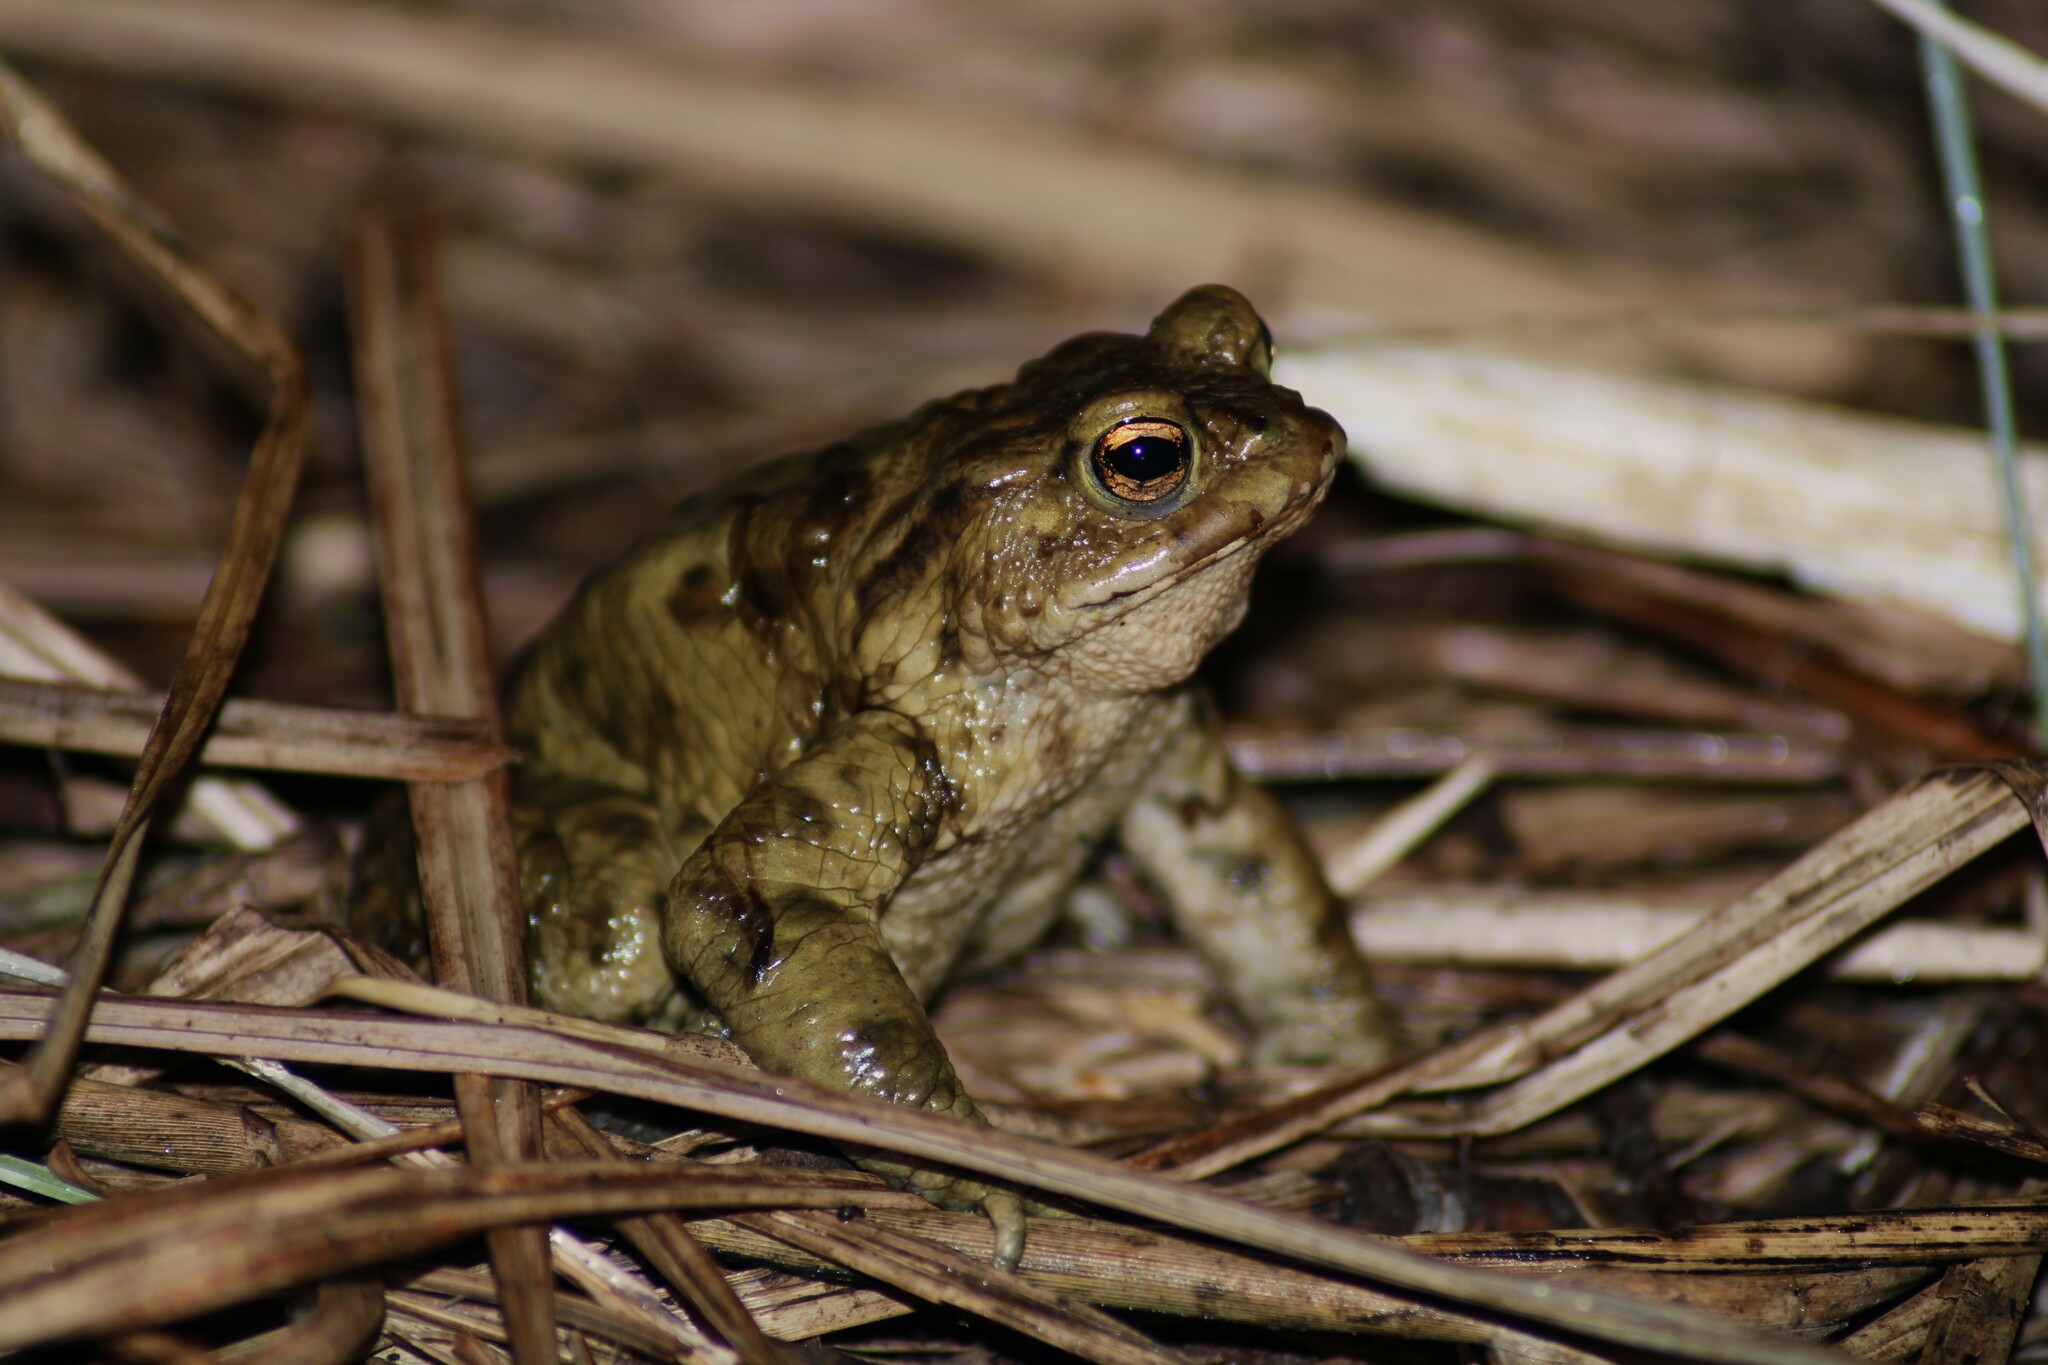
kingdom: Animalia
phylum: Chordata
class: Amphibia
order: Anura
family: Bufonidae
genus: Bufo
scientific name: Bufo bufo
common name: Common toad
